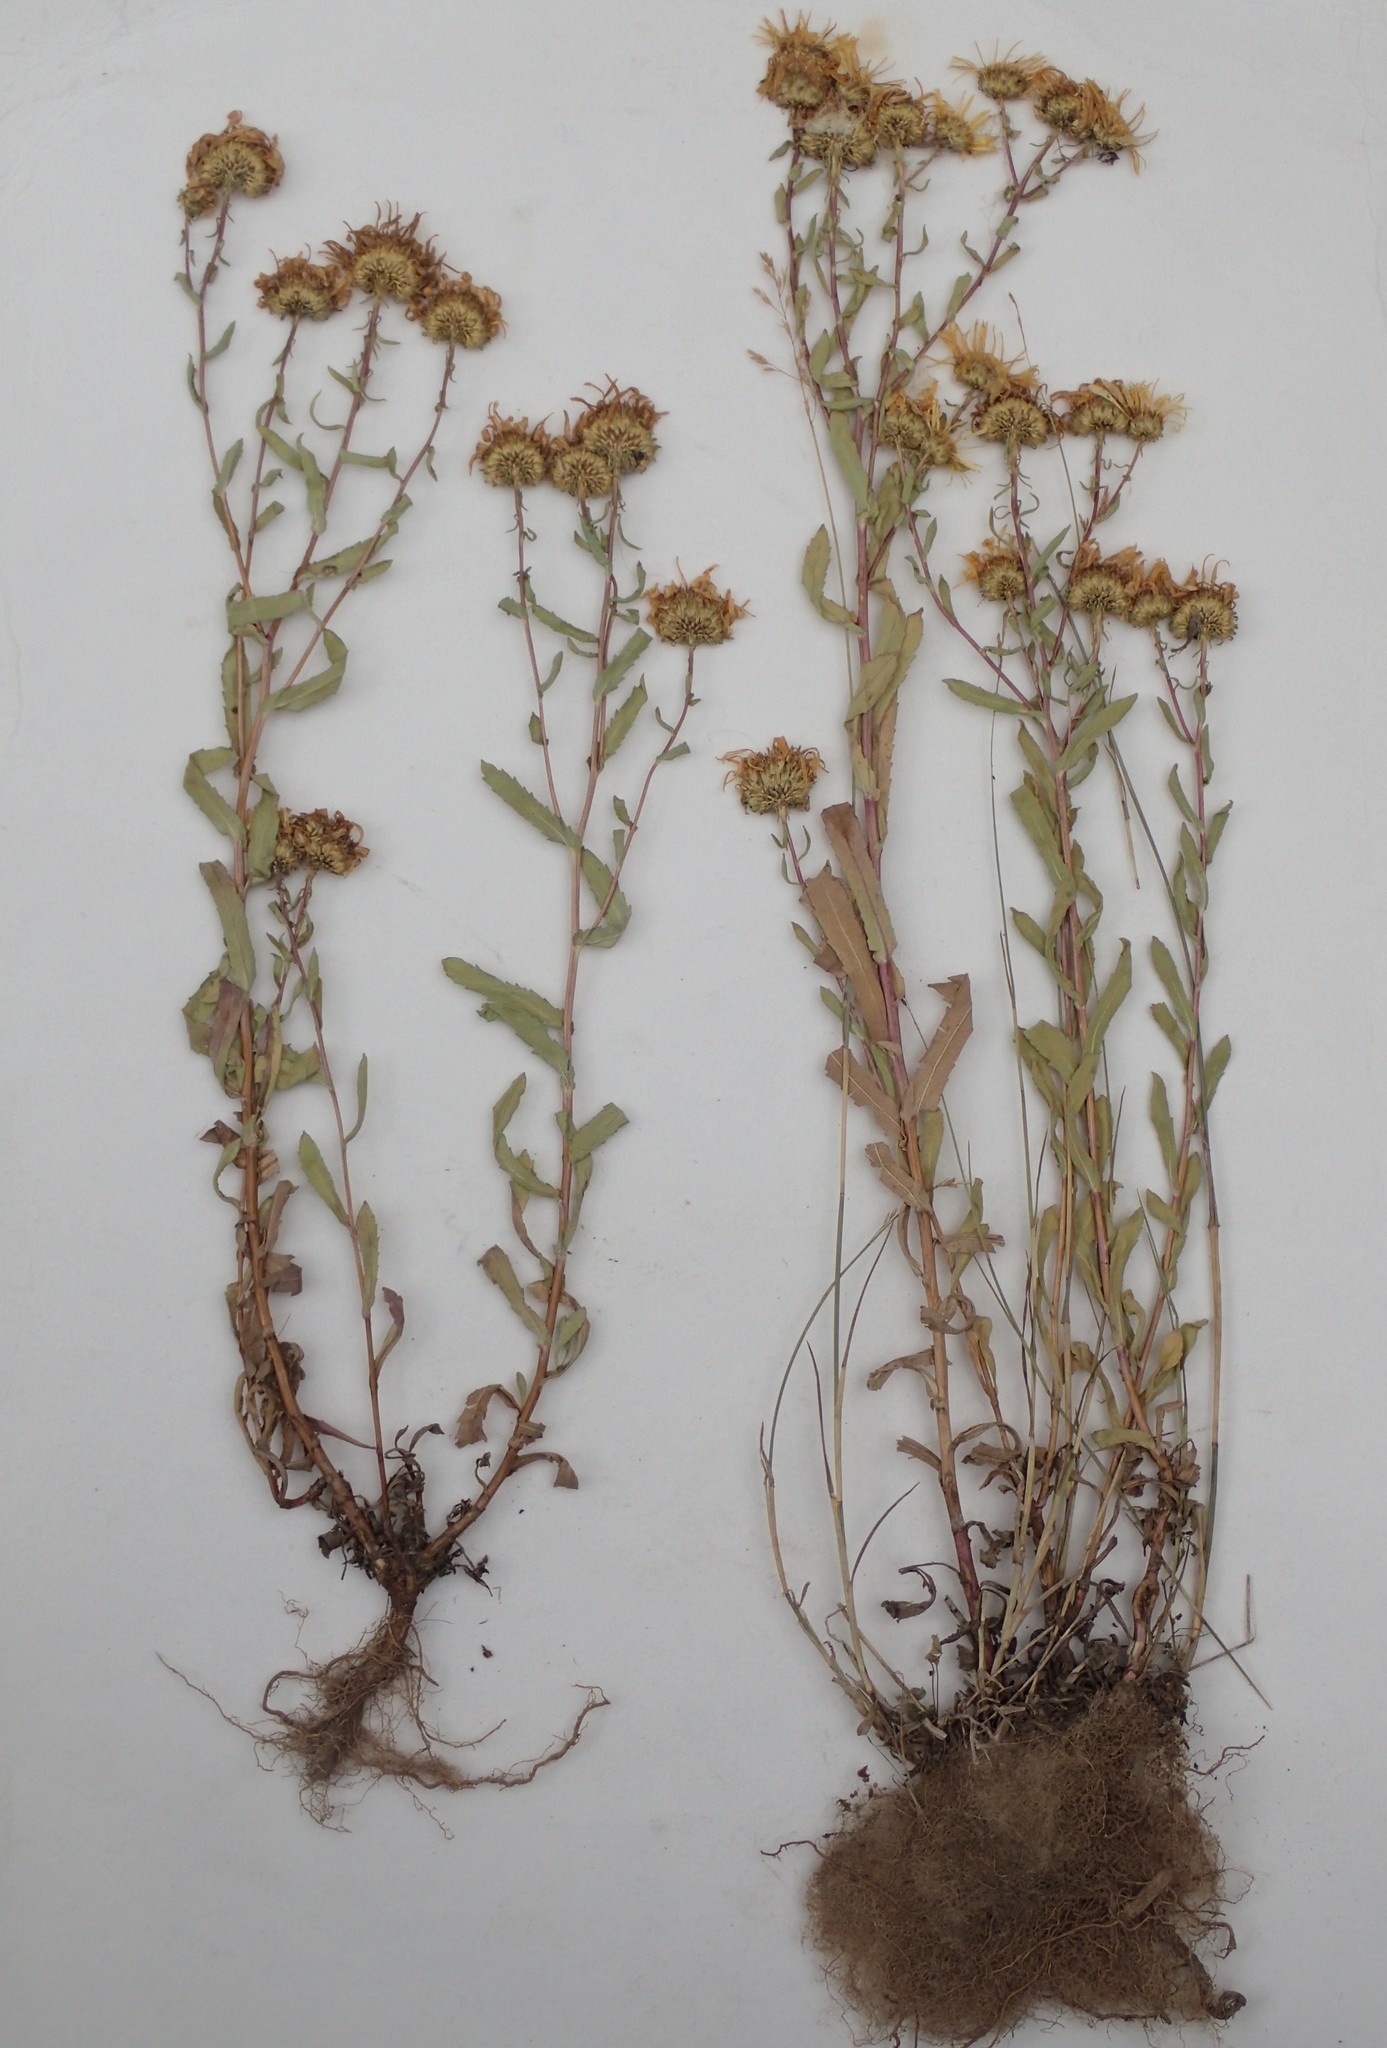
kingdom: Plantae
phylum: Tracheophyta
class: Magnoliopsida
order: Asterales
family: Asteraceae
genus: Grindelia
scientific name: Grindelia squarrosa
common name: Curly-cup gumweed
